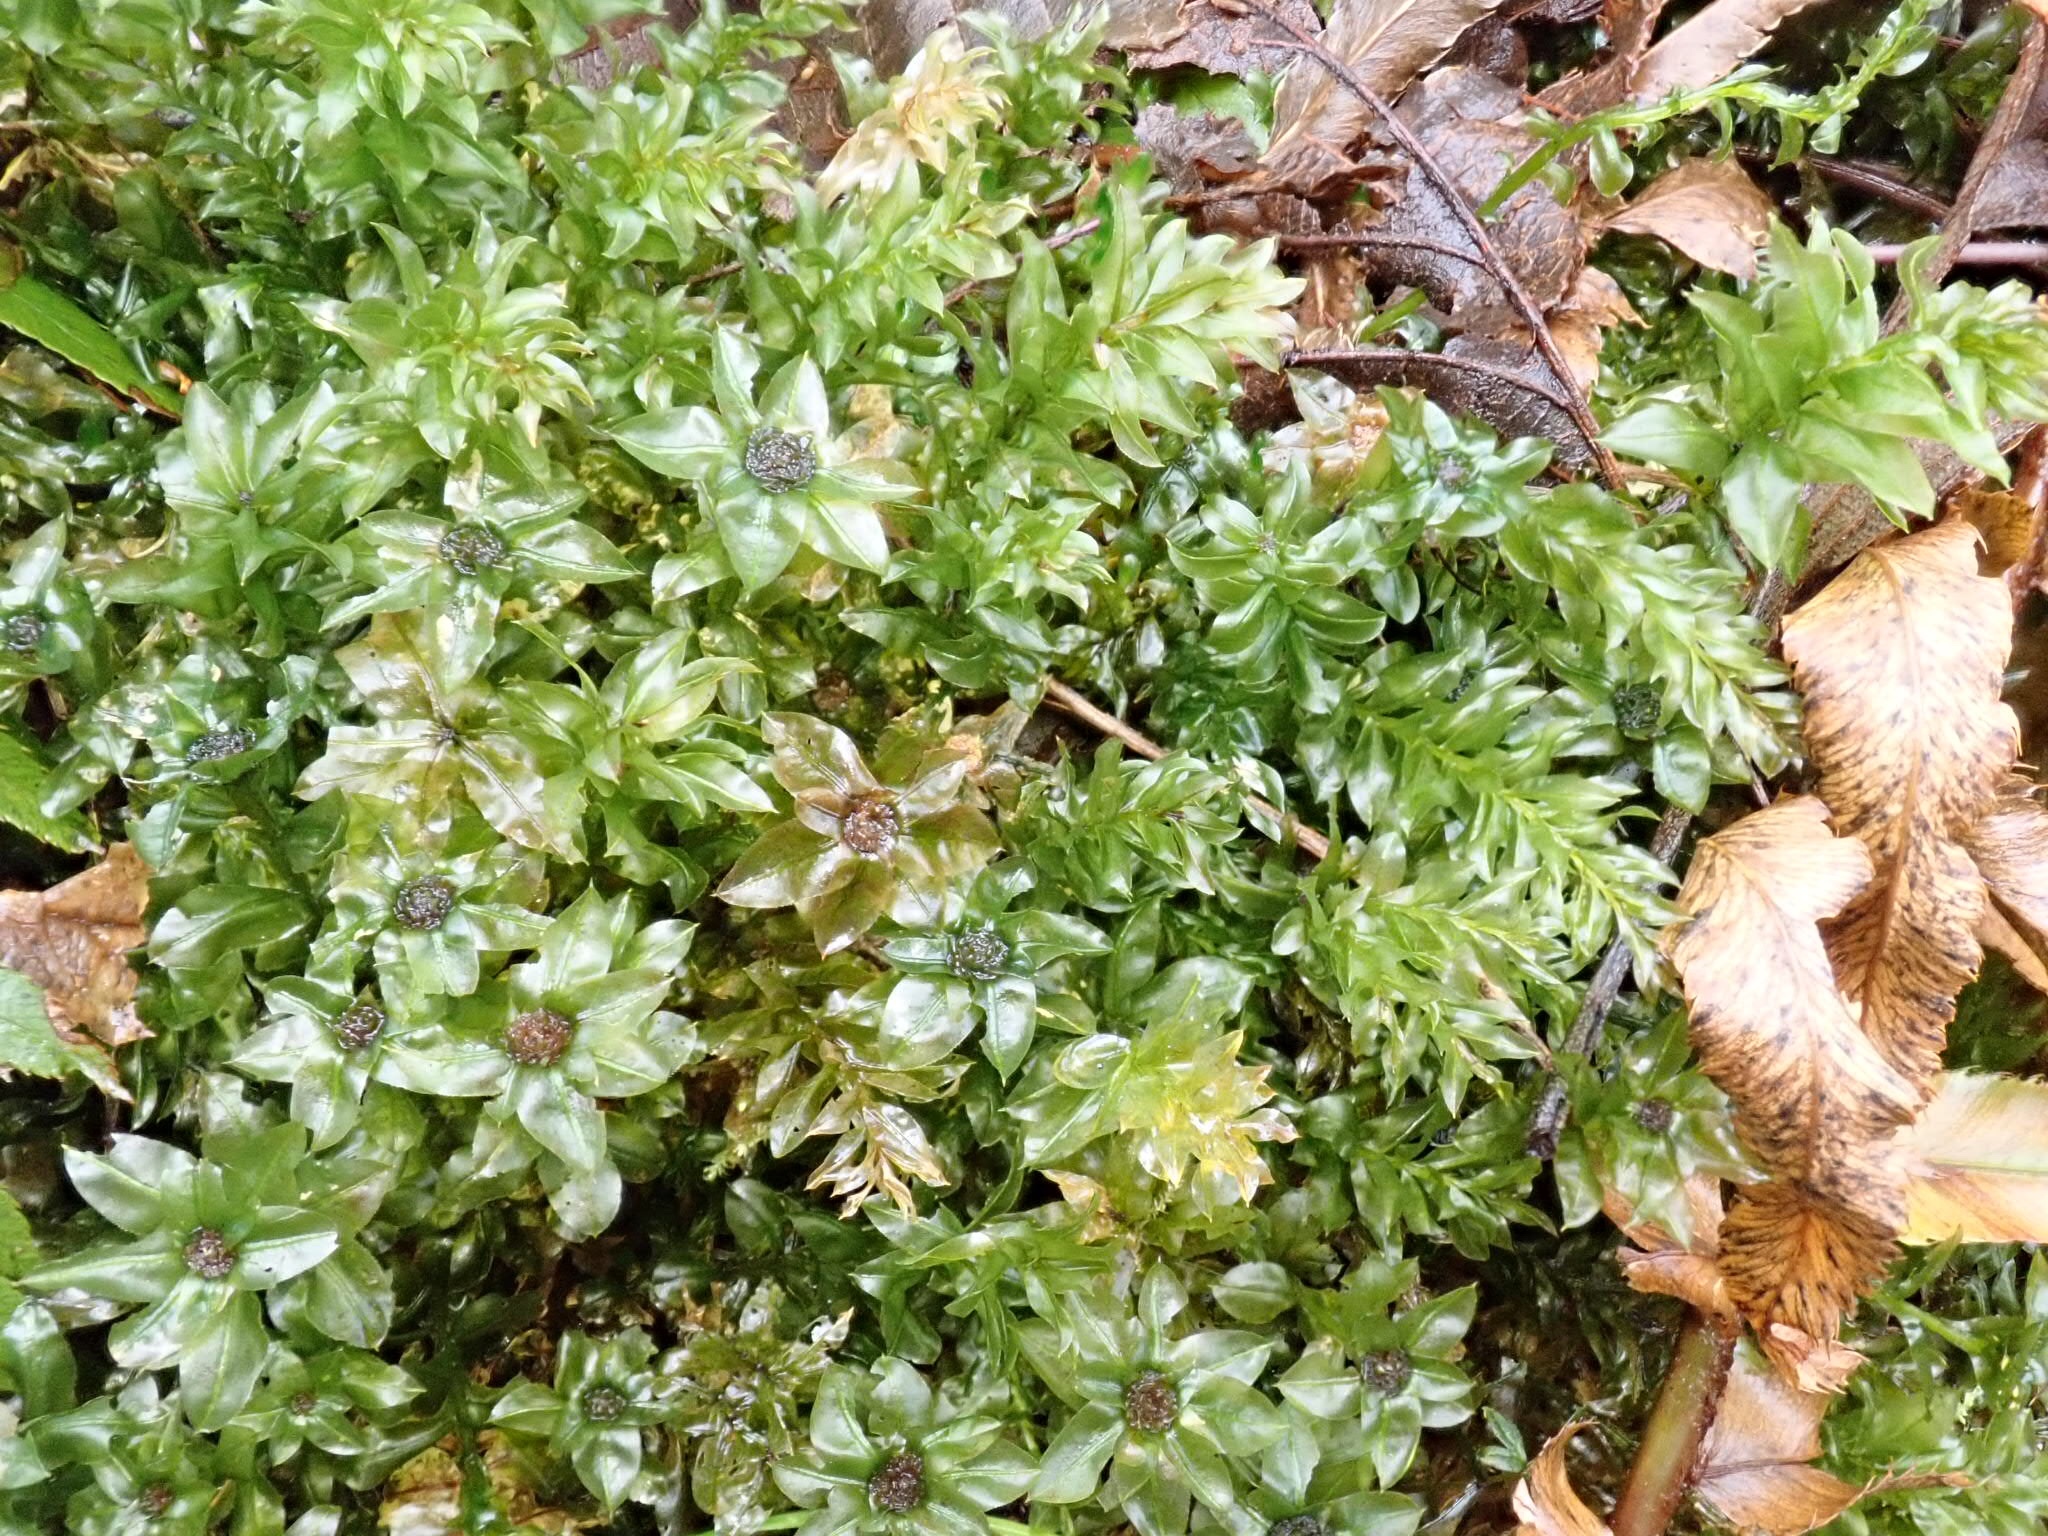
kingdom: Plantae
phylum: Bryophyta
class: Bryopsida
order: Bryales
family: Mniaceae
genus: Plagiomnium
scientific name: Plagiomnium insigne
